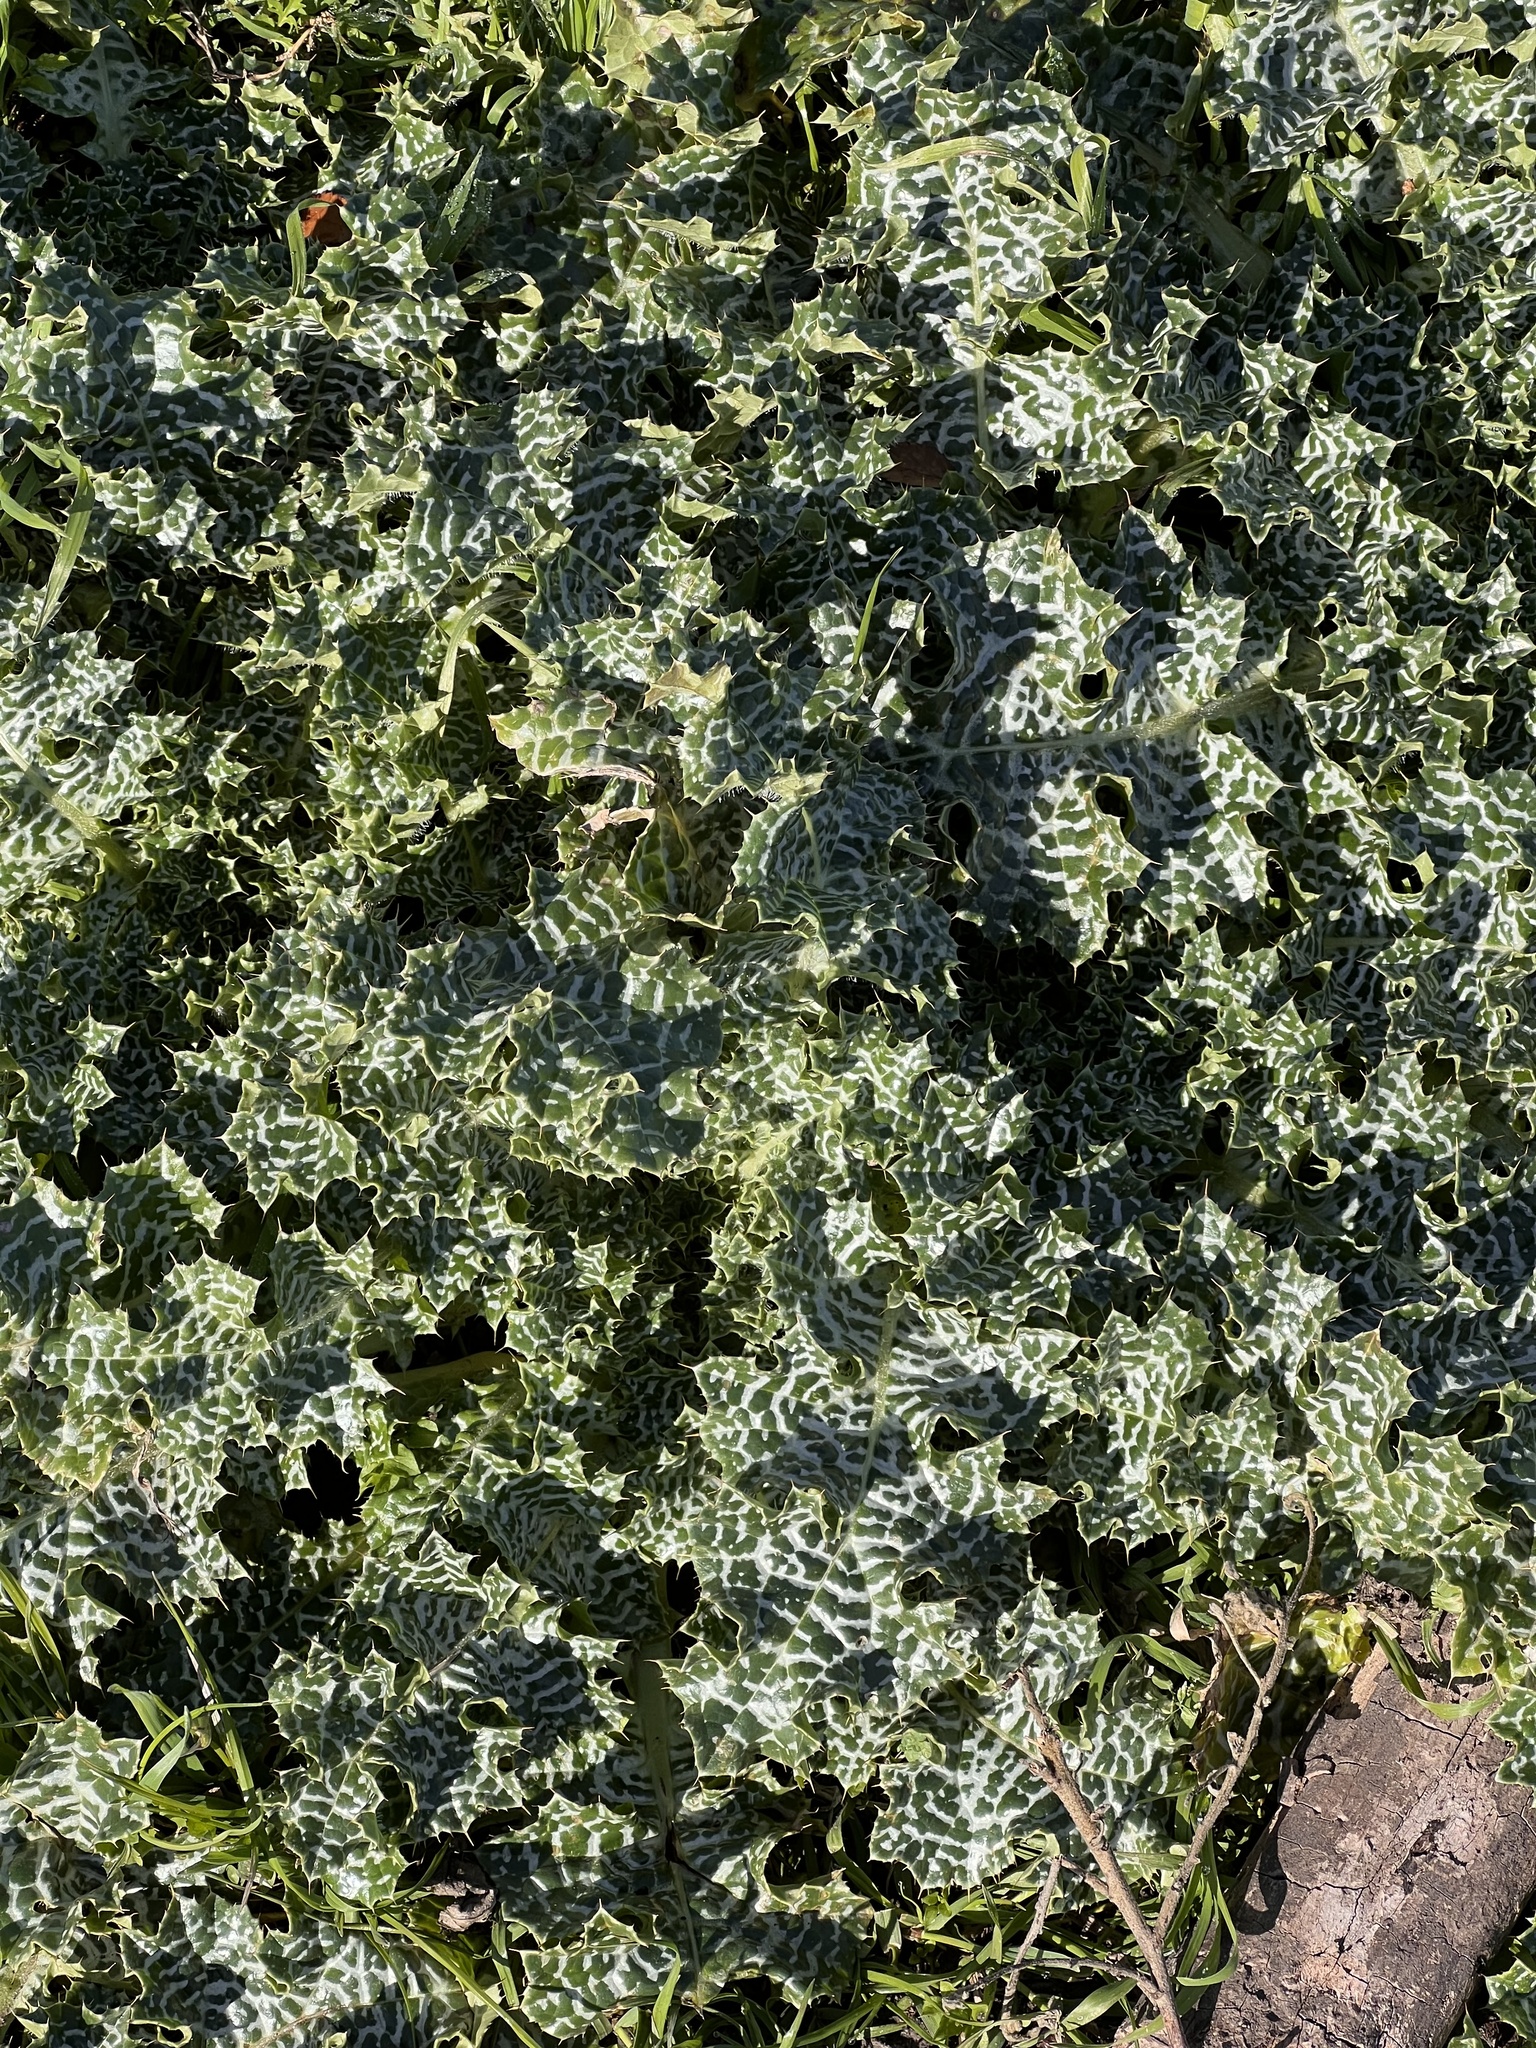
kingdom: Plantae
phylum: Tracheophyta
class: Magnoliopsida
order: Asterales
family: Asteraceae
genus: Silybum
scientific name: Silybum marianum
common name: Milk thistle
